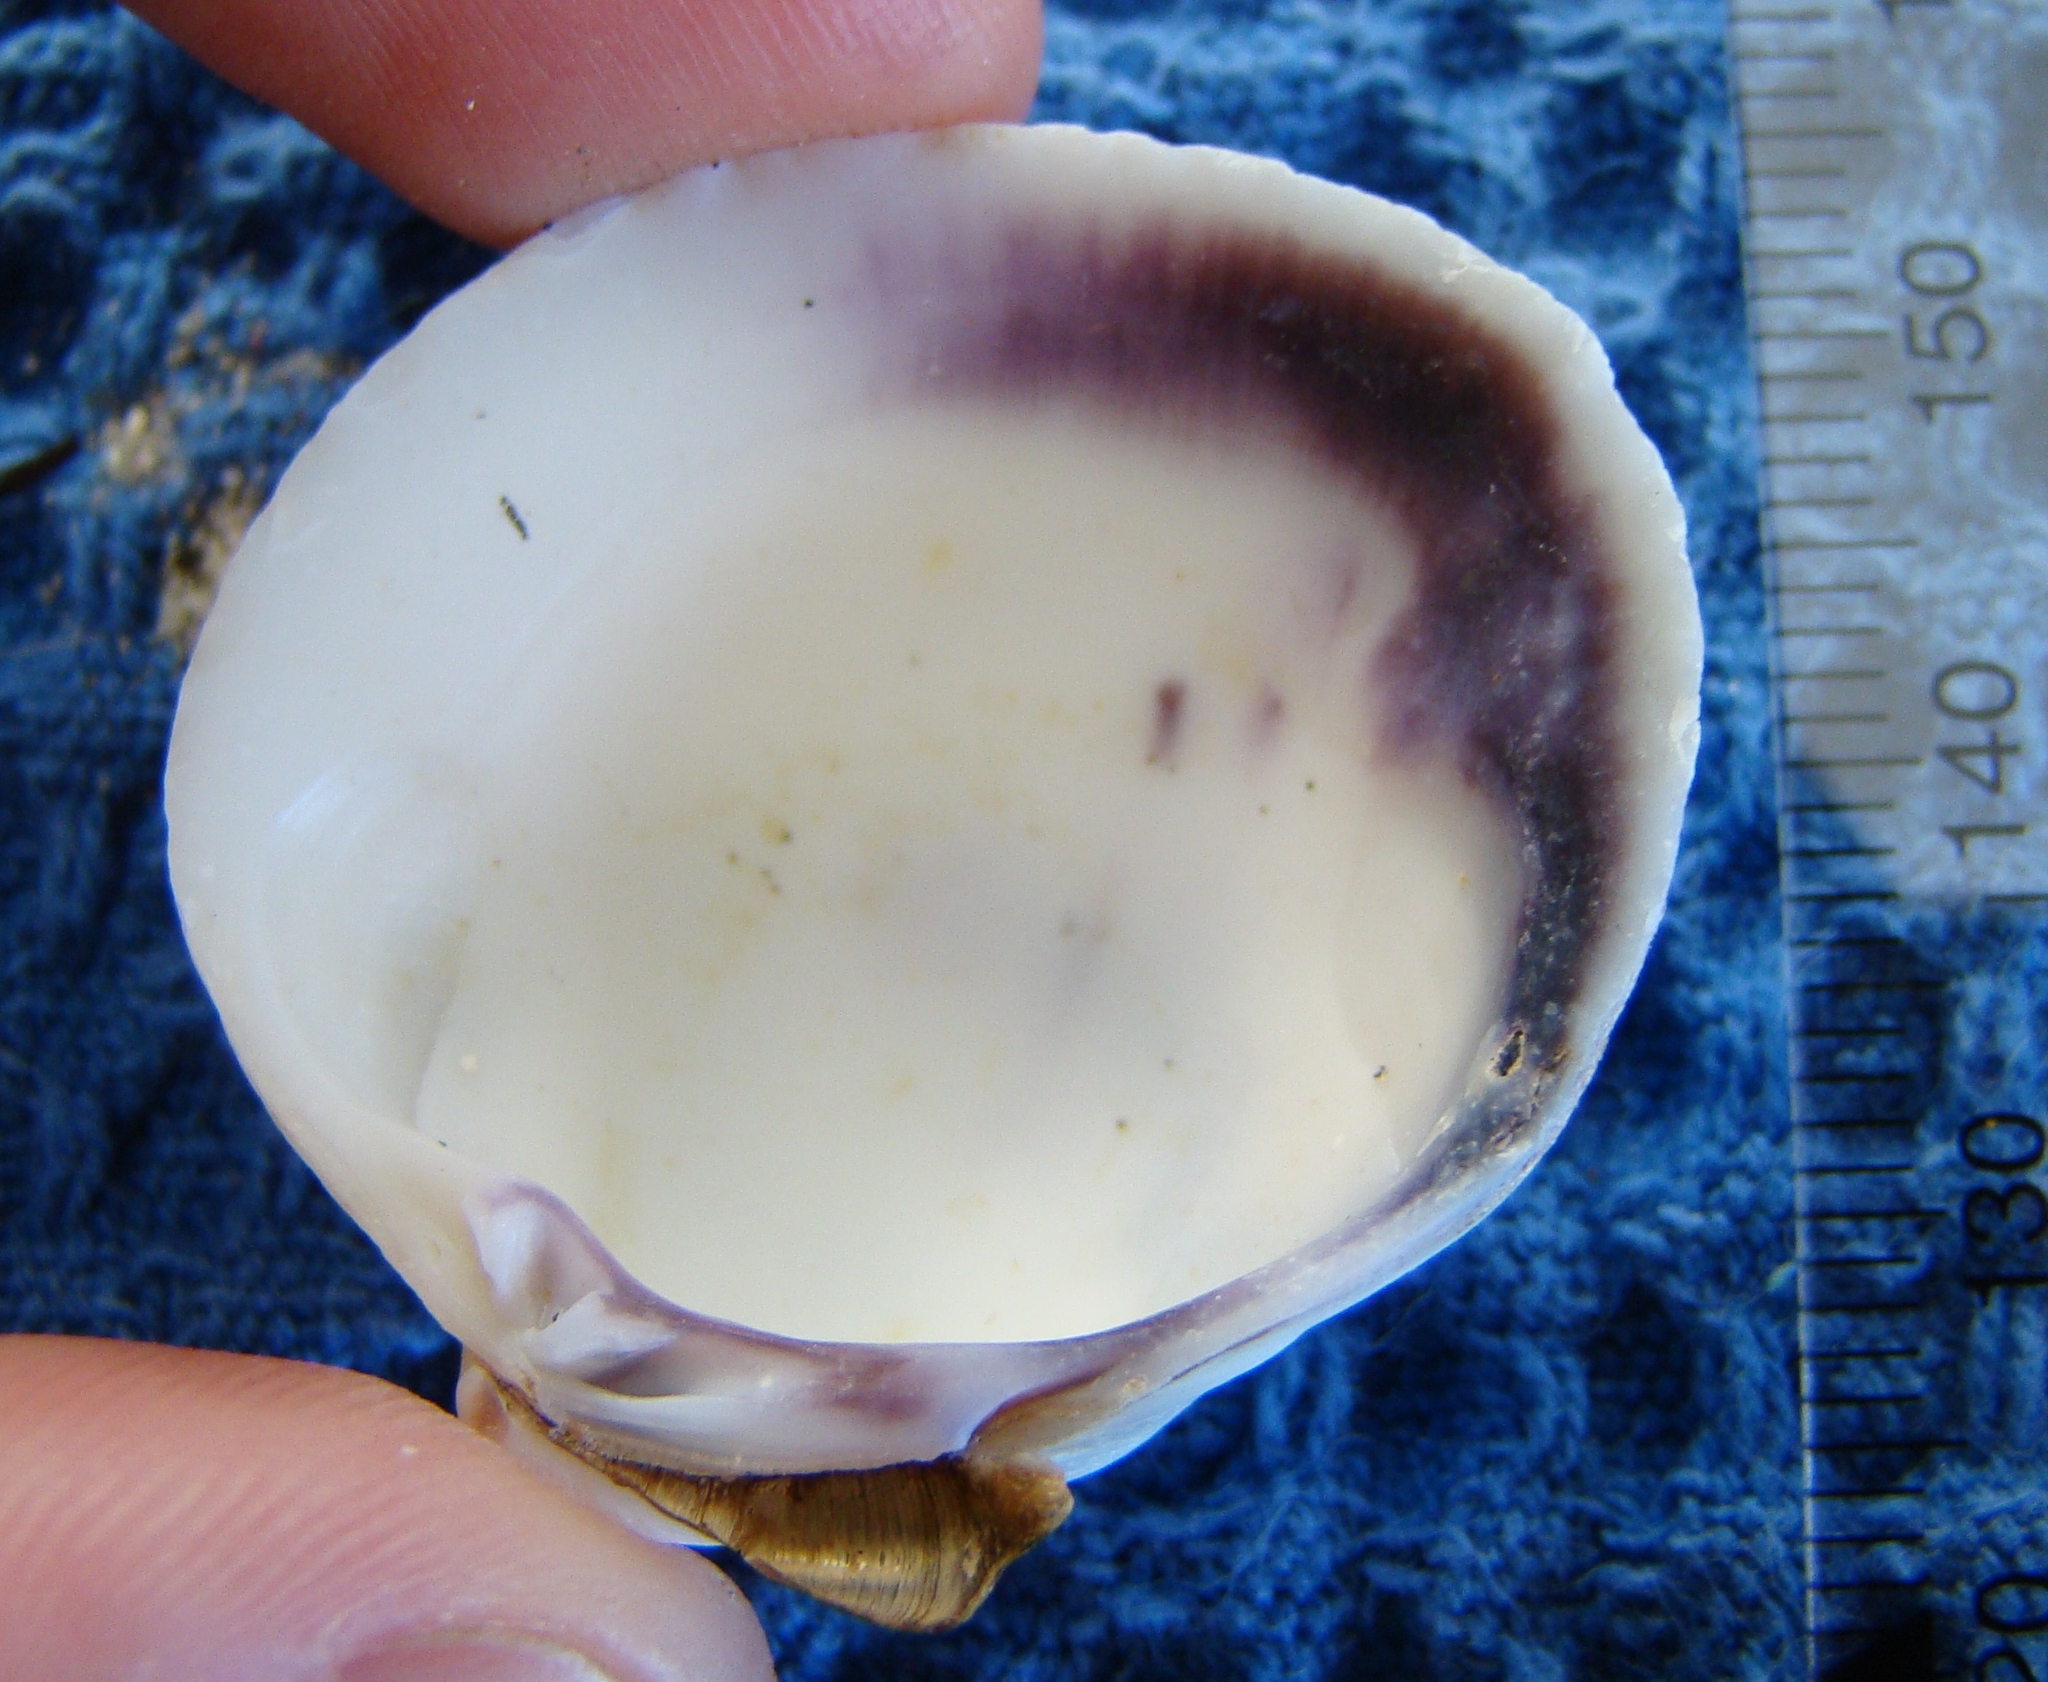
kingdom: Animalia
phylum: Mollusca
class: Bivalvia
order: Venerida
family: Veneridae
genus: Austrovenus
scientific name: Austrovenus stutchburyi
